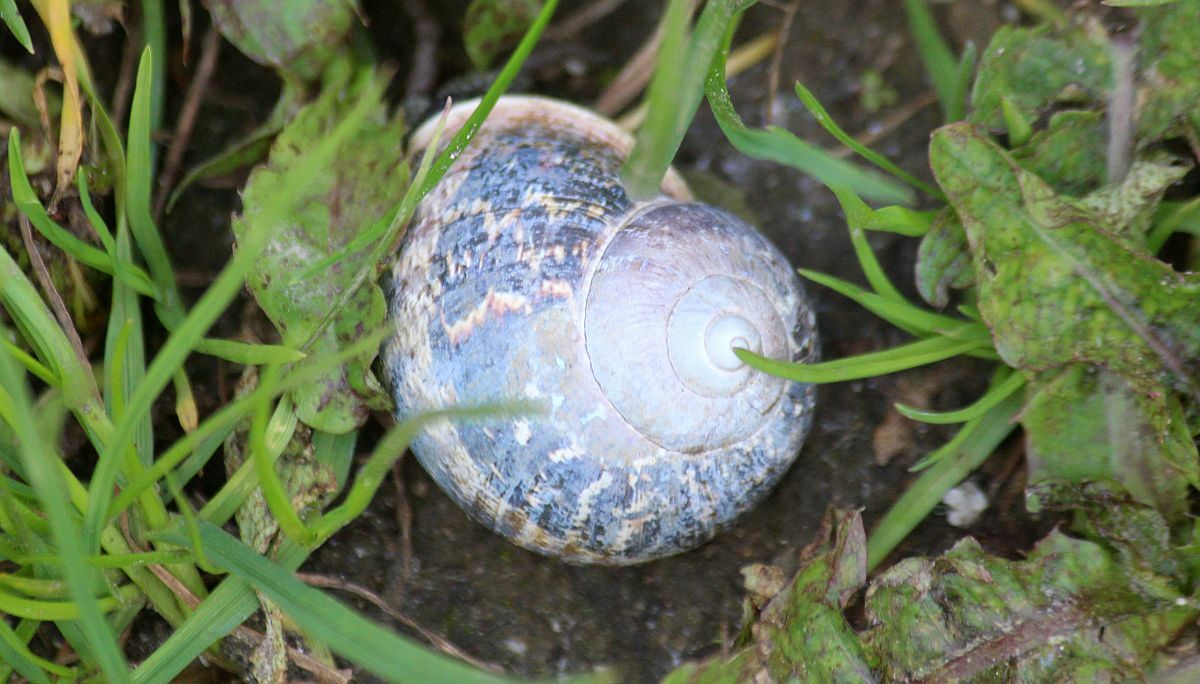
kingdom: Animalia
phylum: Mollusca
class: Gastropoda
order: Stylommatophora
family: Helicidae
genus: Cornu
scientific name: Cornu aspersum
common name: Brown garden snail
